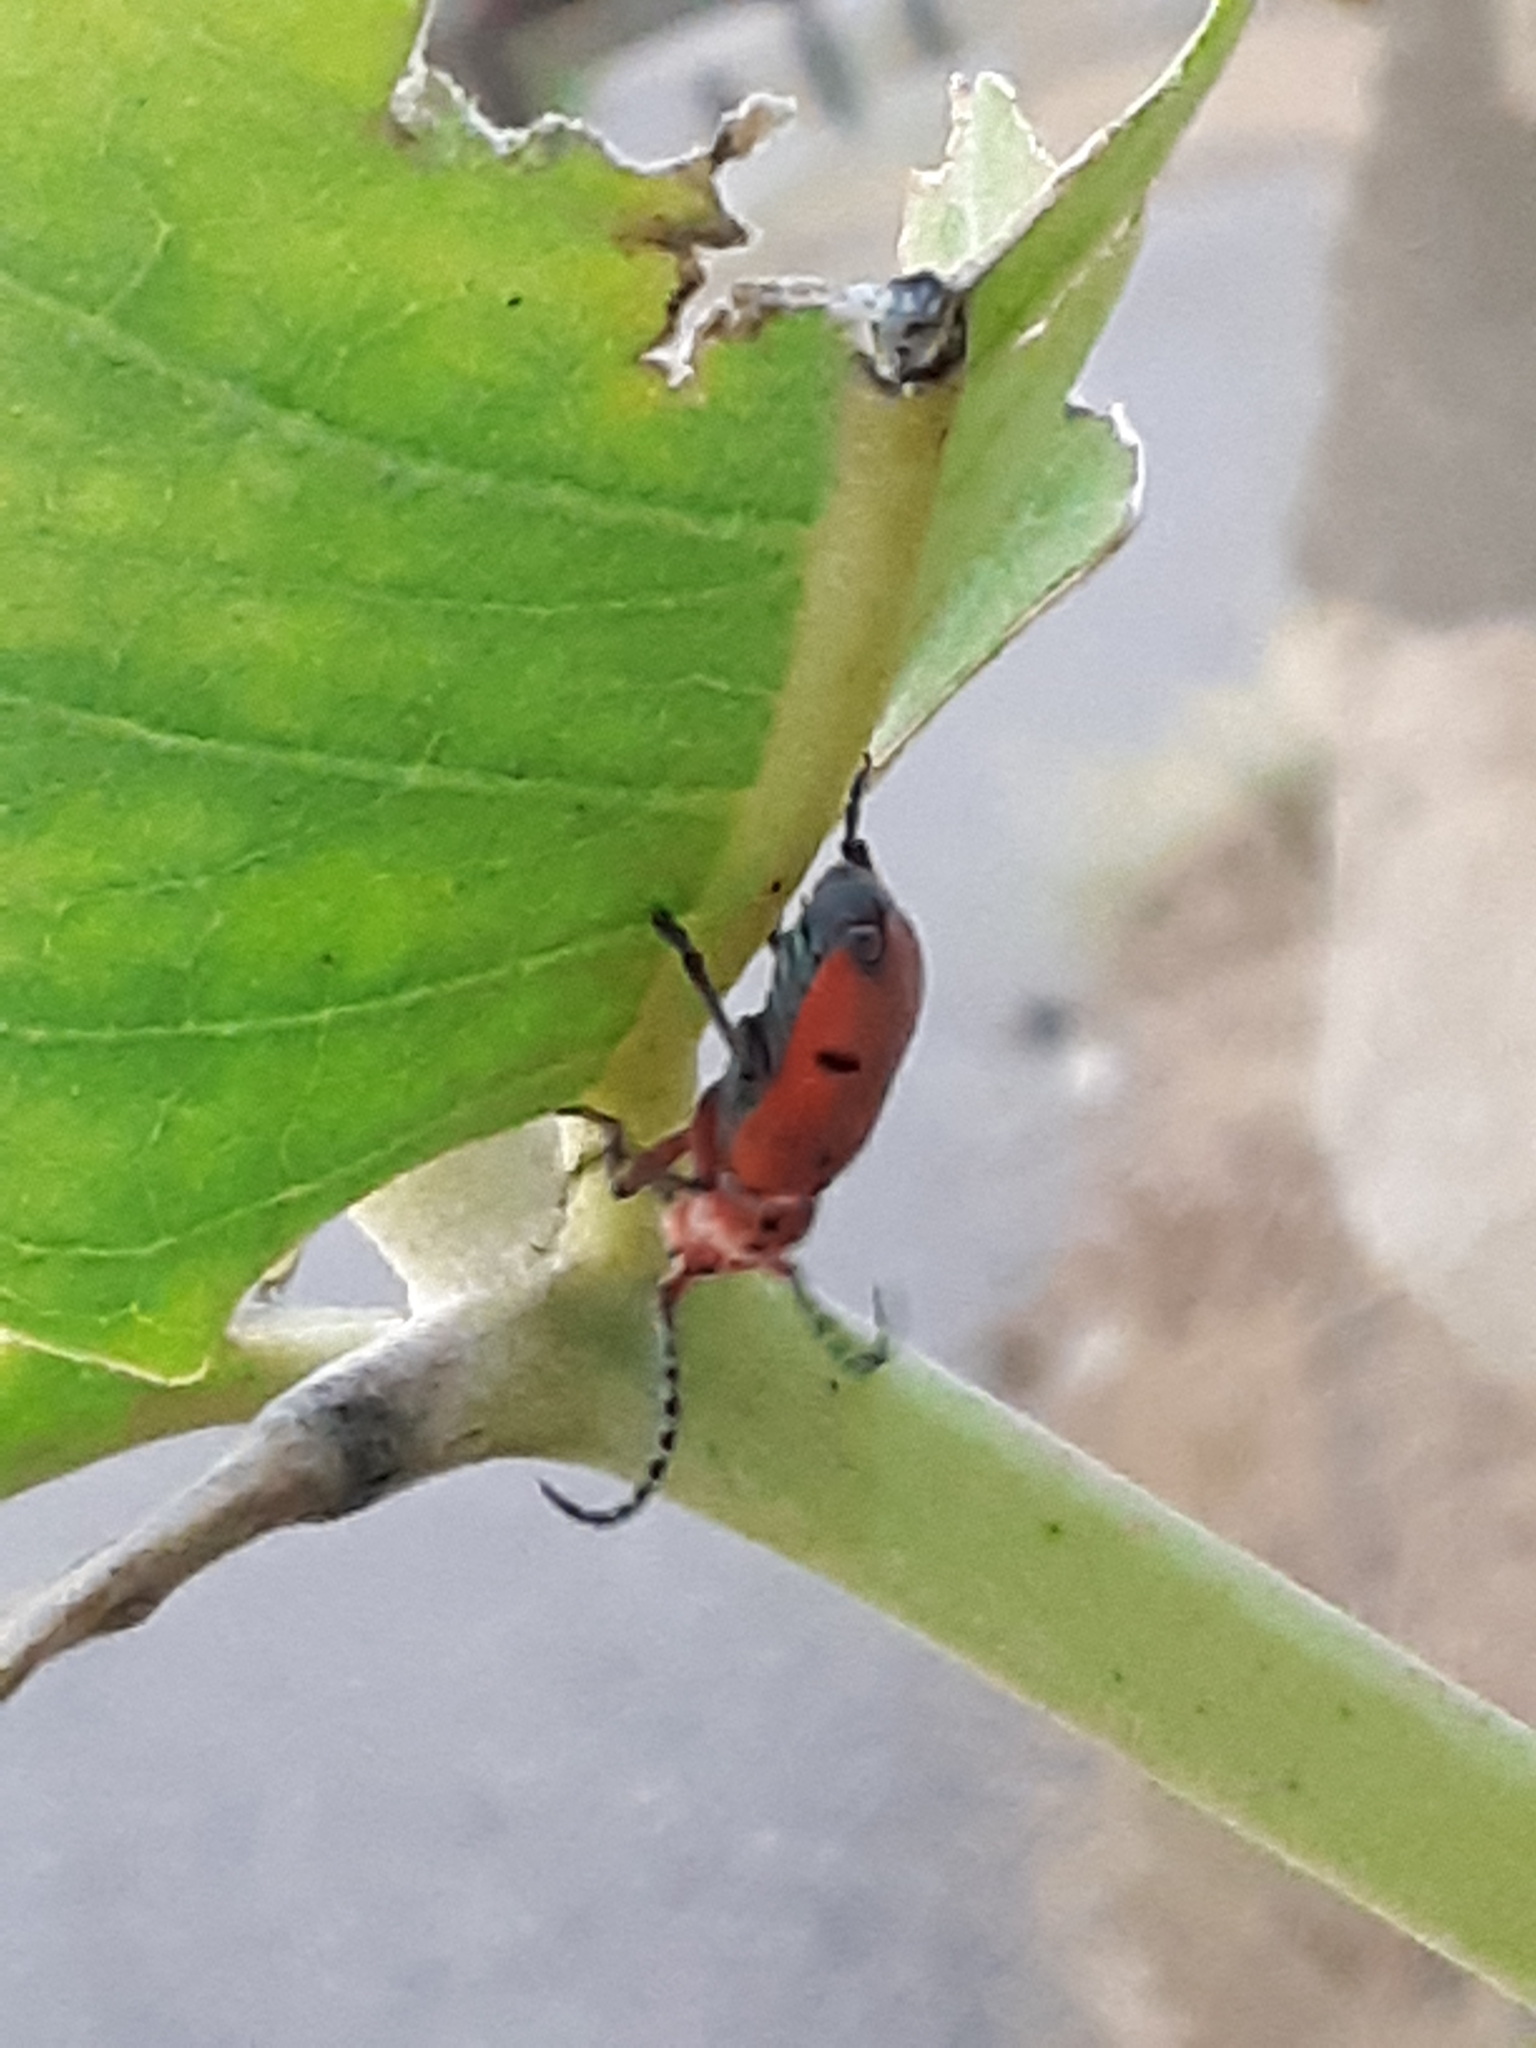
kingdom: Animalia
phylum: Arthropoda
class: Insecta
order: Coleoptera
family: Cerambycidae
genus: Tetraopes
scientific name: Tetraopes femoratus
